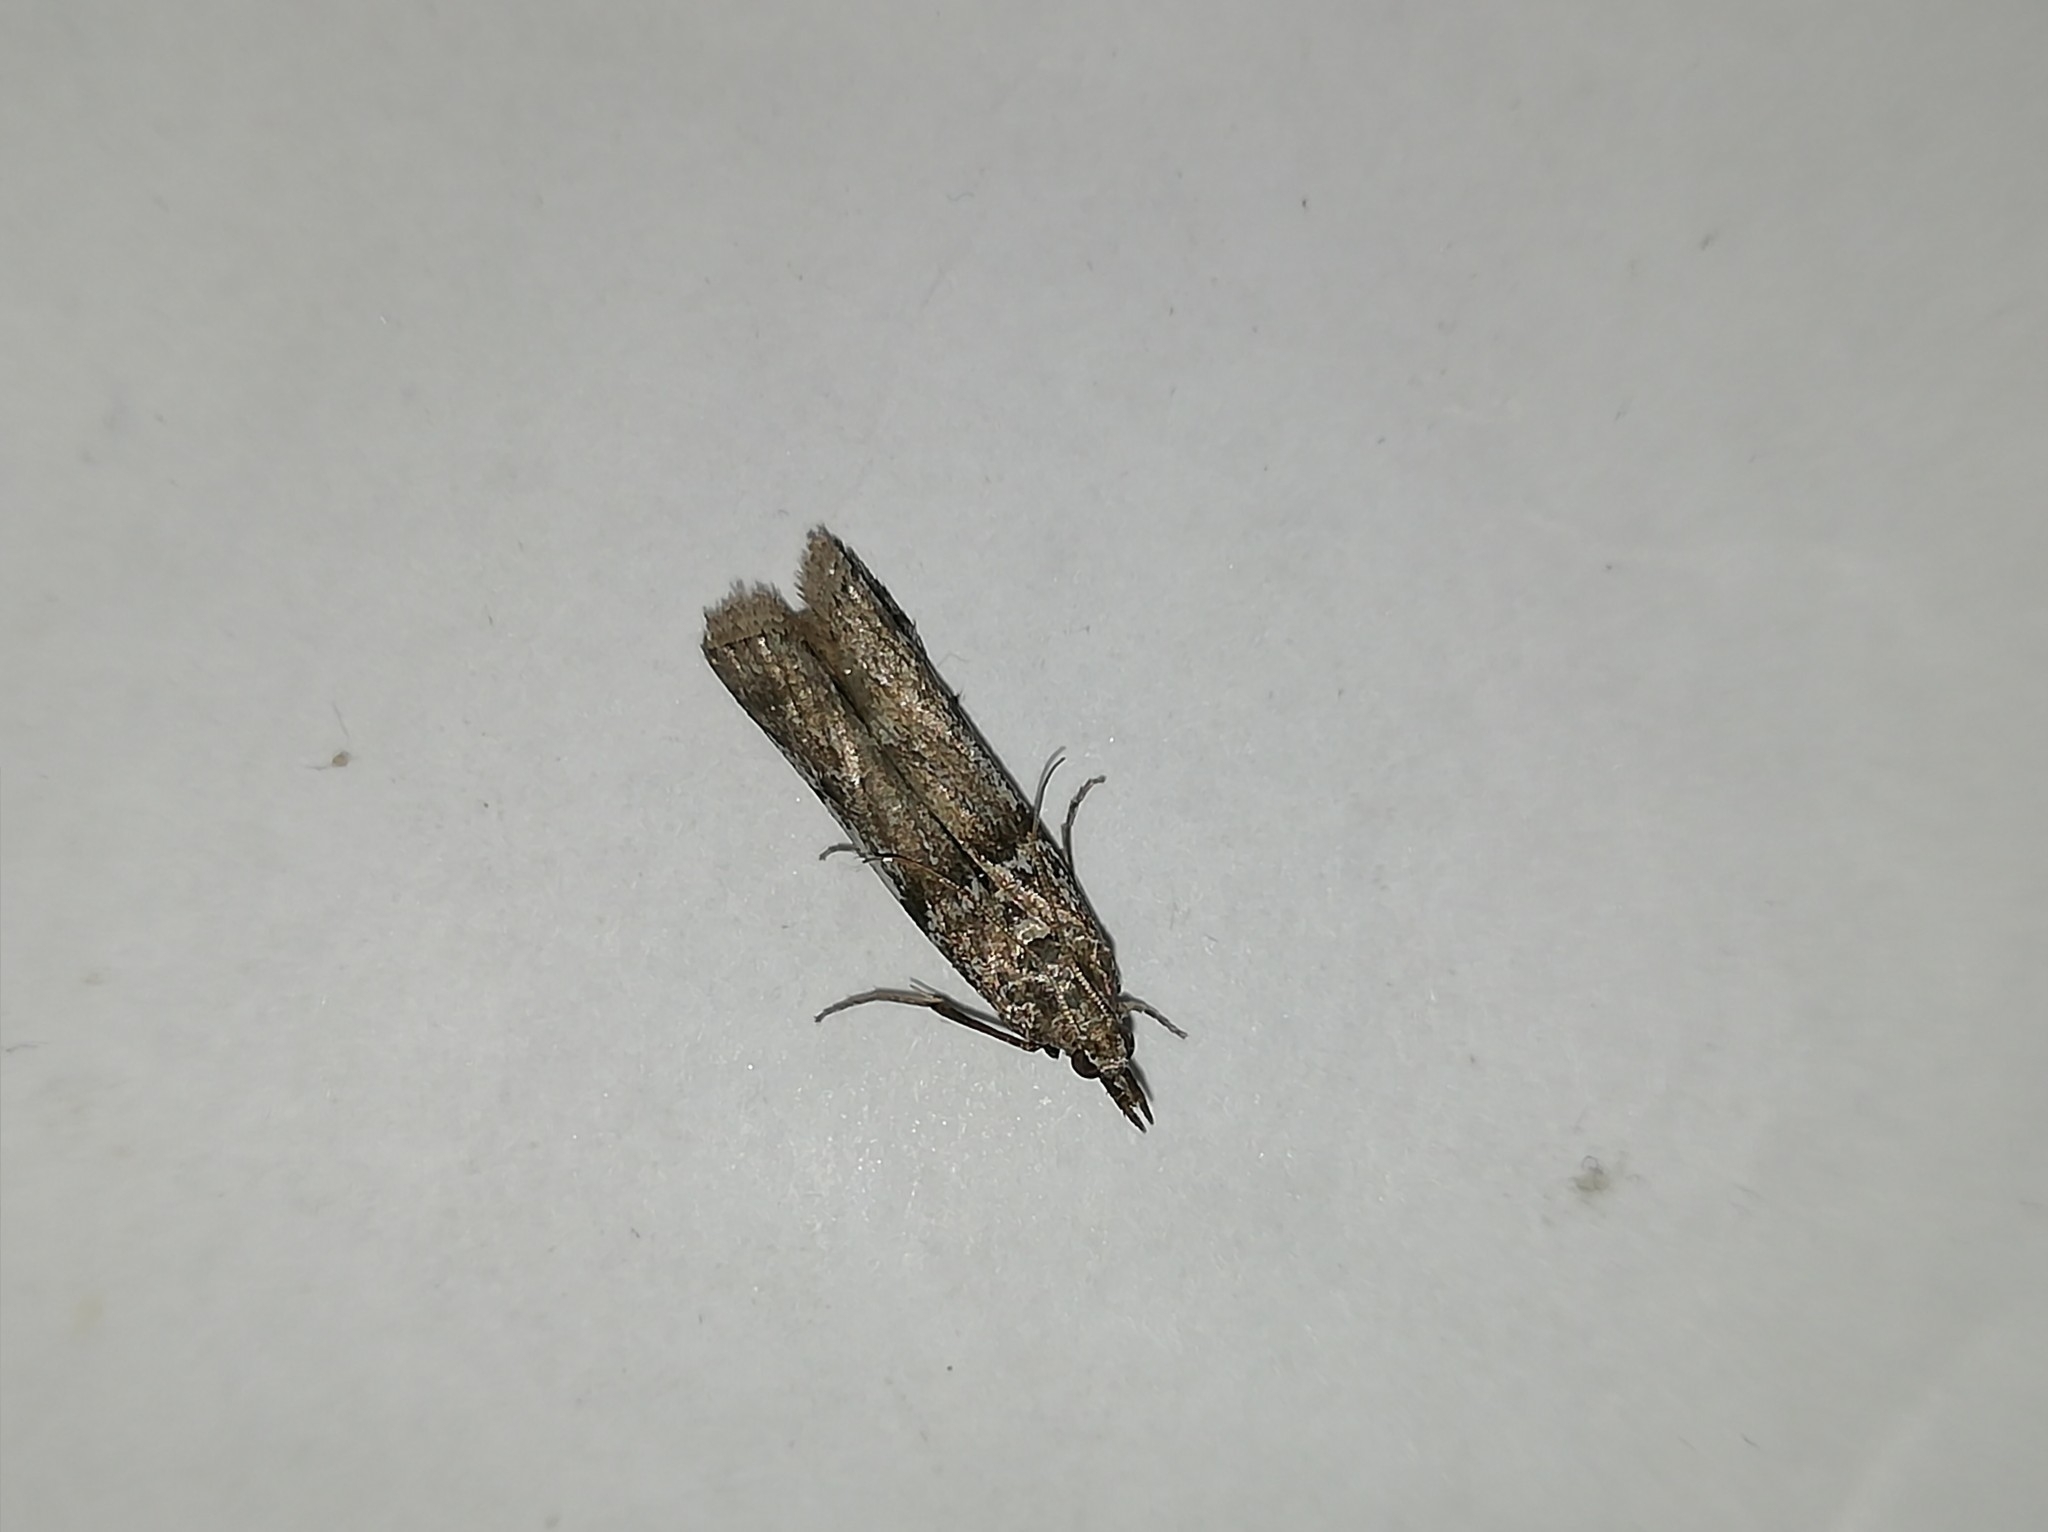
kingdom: Animalia
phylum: Arthropoda
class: Insecta
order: Lepidoptera
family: Pyralidae
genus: Zophodia
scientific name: Zophodia convolutella
